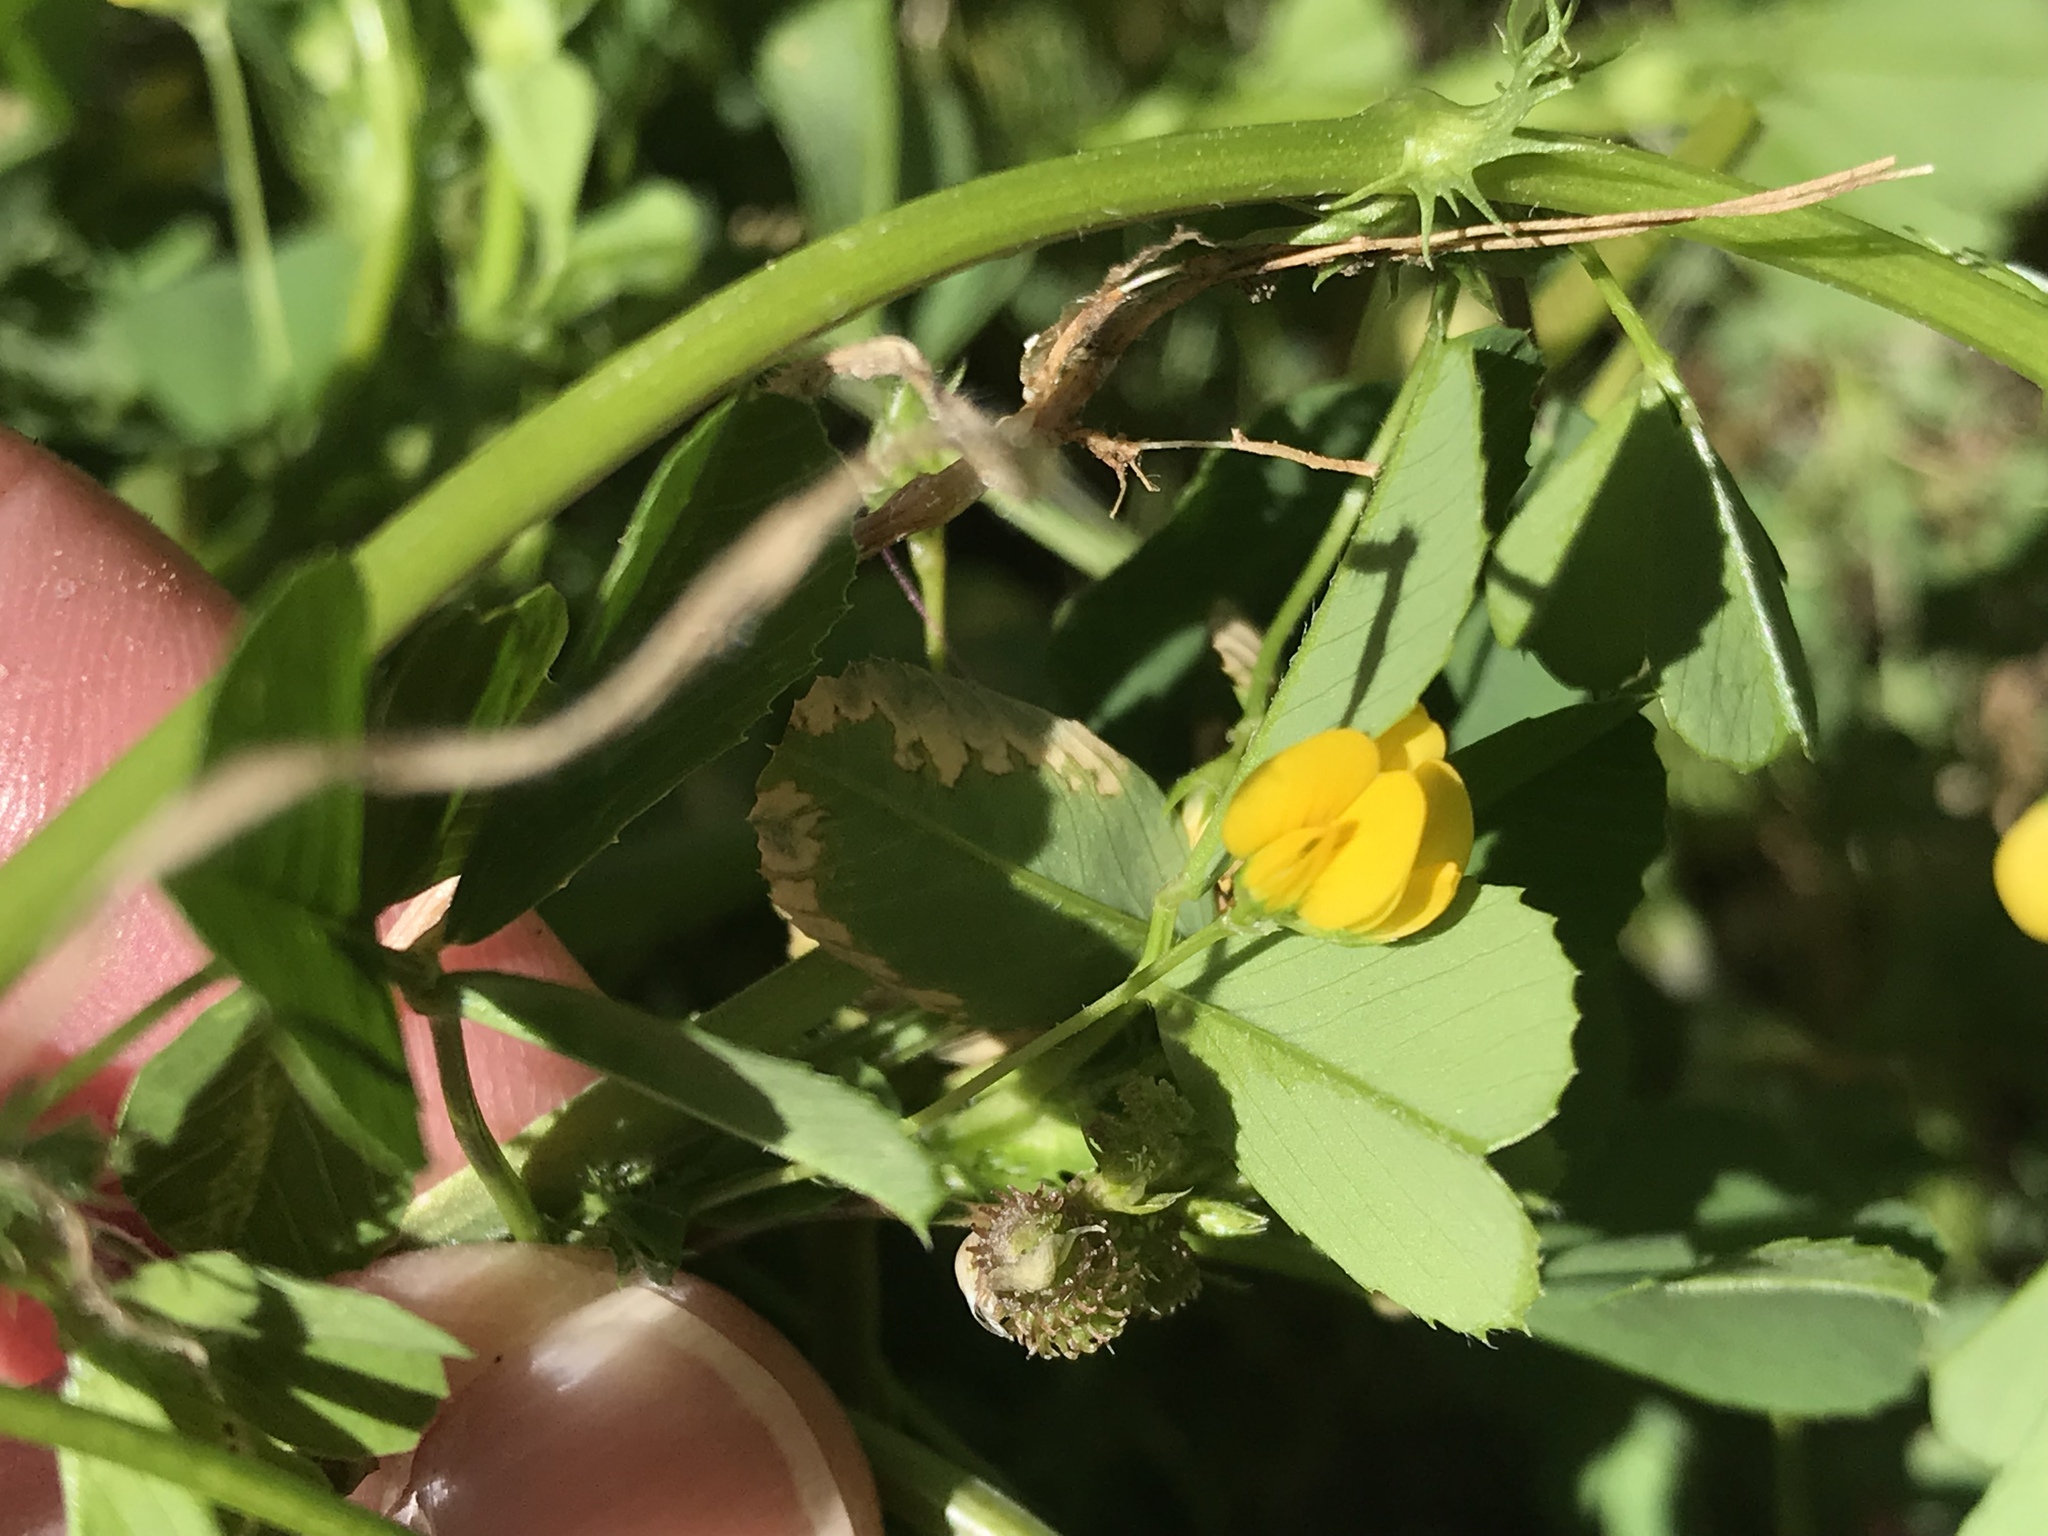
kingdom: Plantae
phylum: Tracheophyta
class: Magnoliopsida
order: Fabales
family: Fabaceae
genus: Medicago
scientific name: Medicago polymorpha
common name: Burclover
